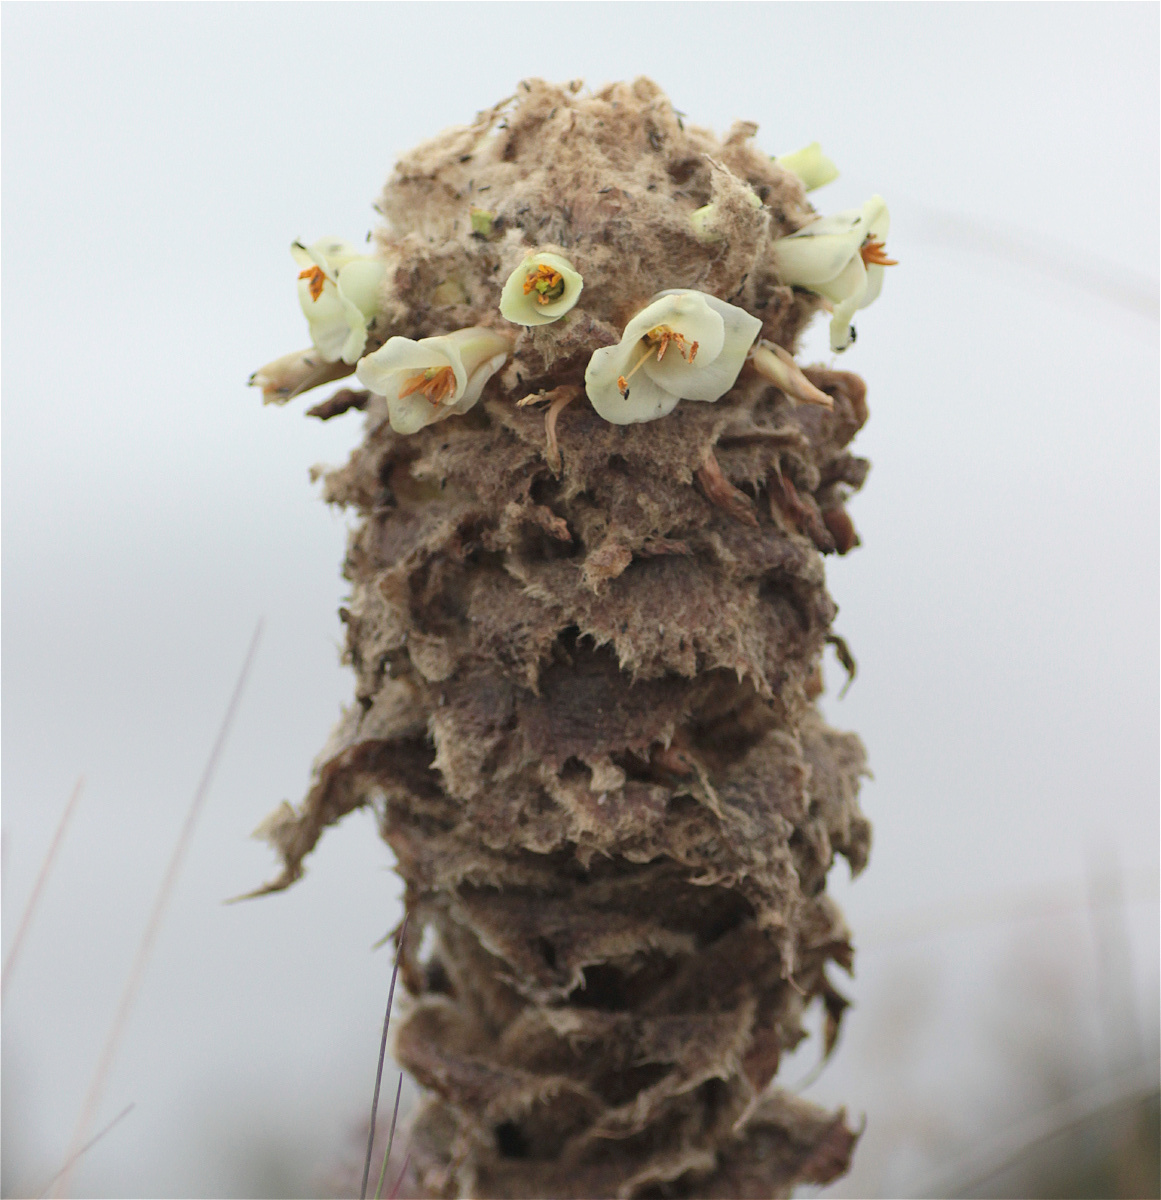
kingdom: Plantae
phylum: Tracheophyta
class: Liliopsida
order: Poales
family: Bromeliaceae
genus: Puya
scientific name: Puya trianae
